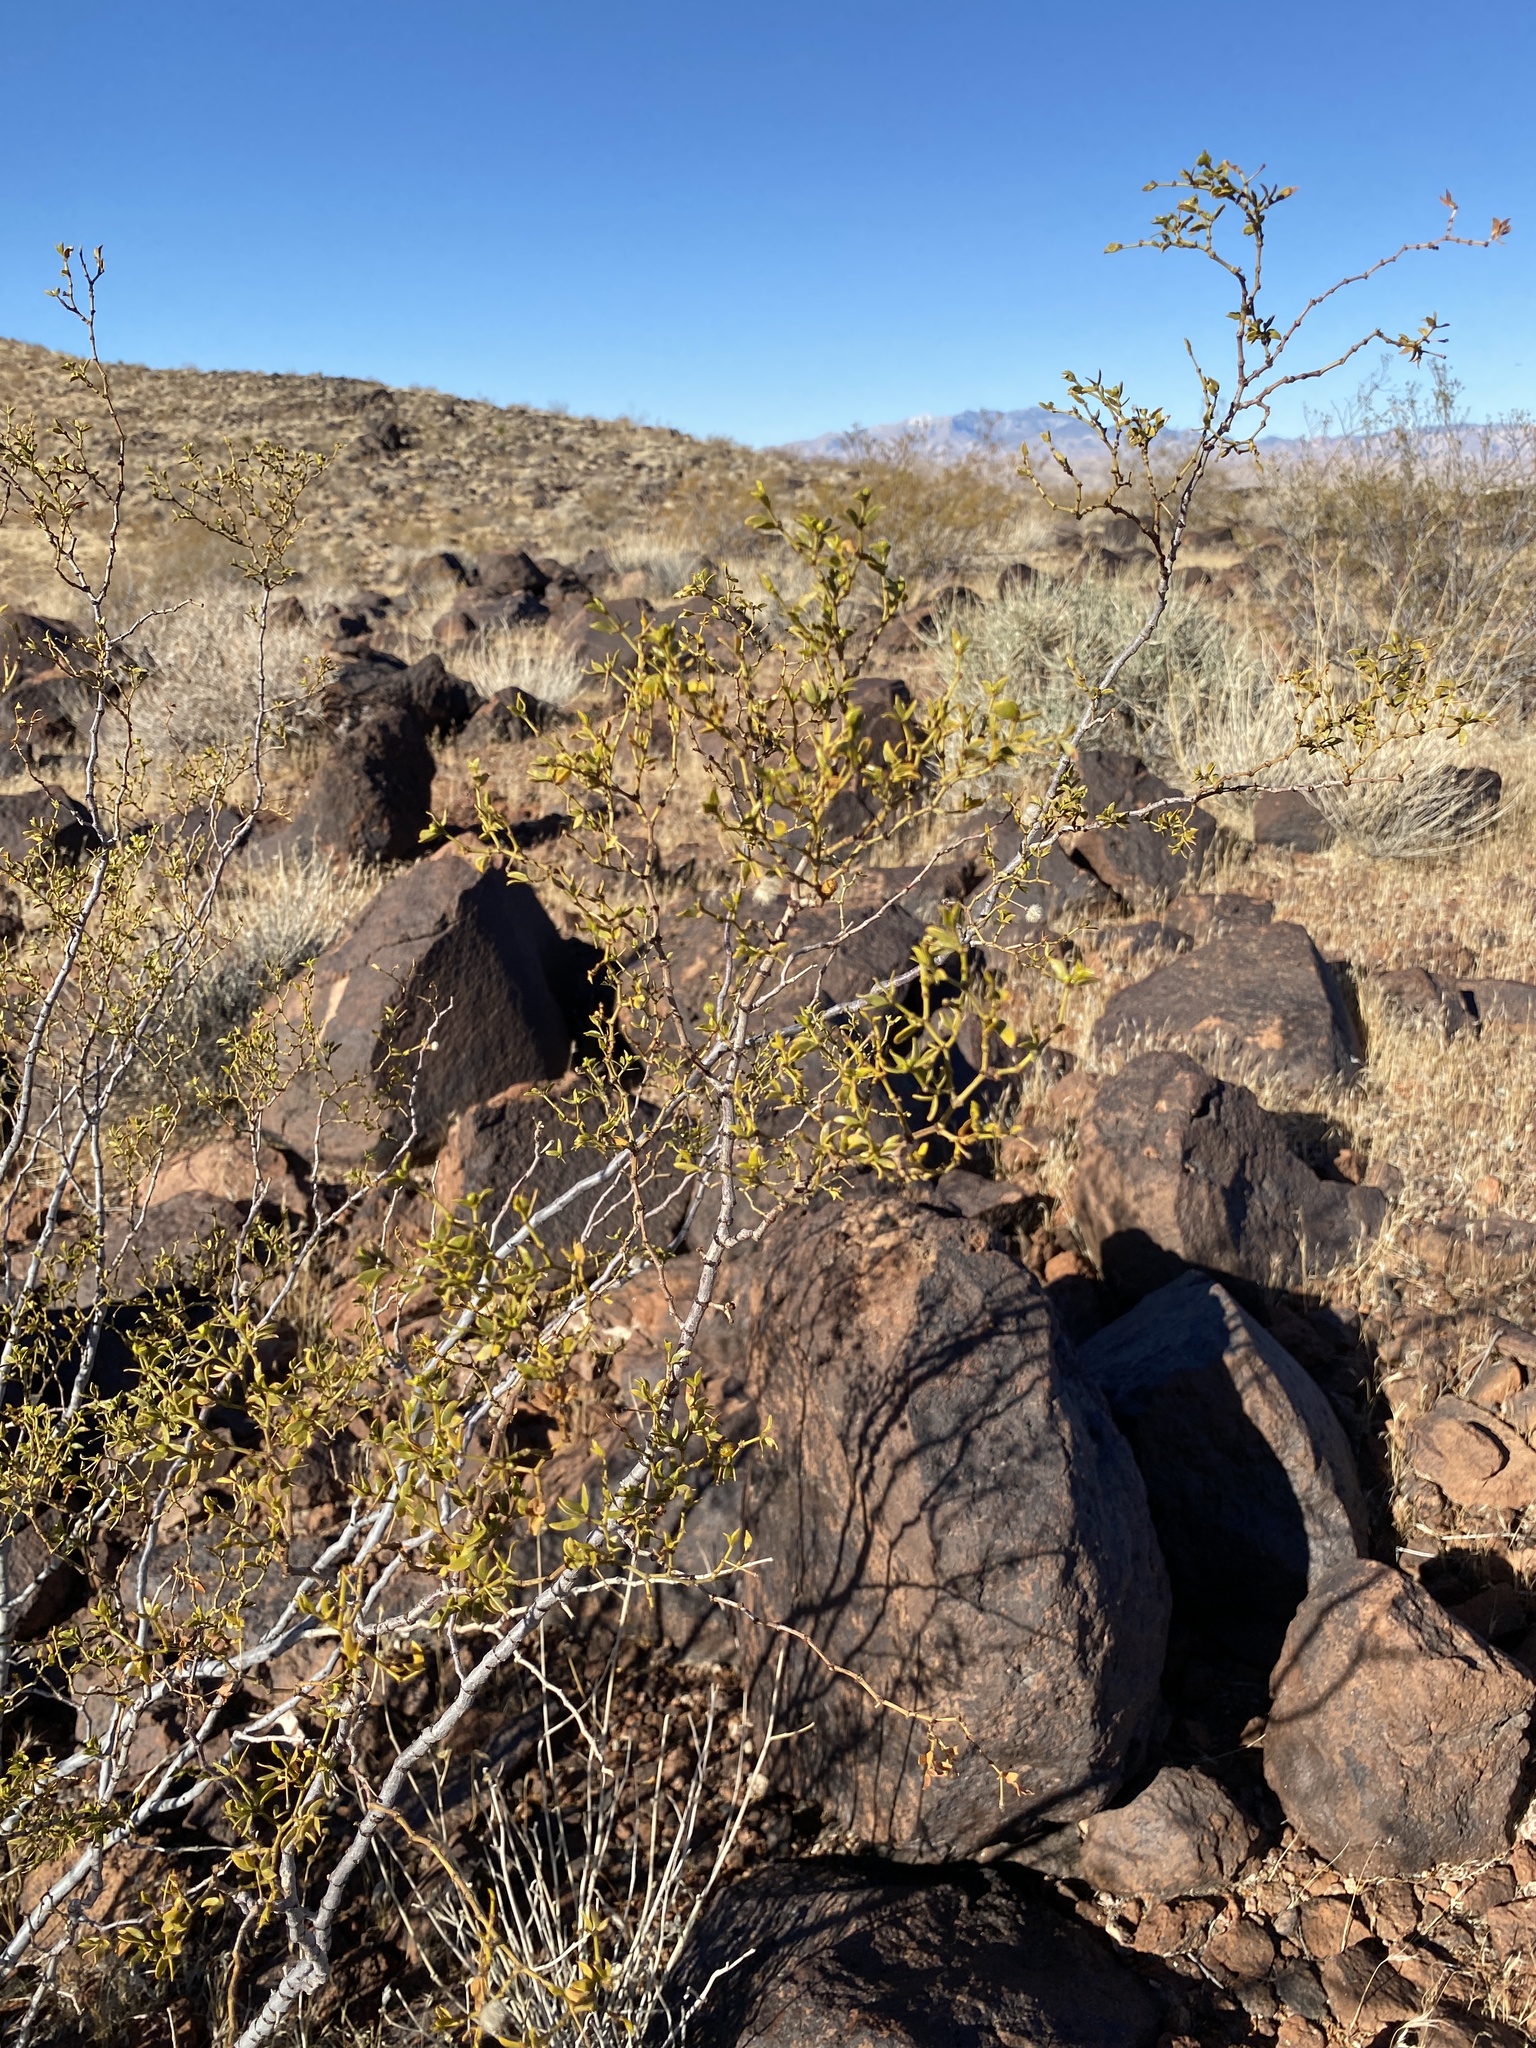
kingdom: Plantae
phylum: Tracheophyta
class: Magnoliopsida
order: Zygophyllales
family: Zygophyllaceae
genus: Larrea
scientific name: Larrea tridentata
